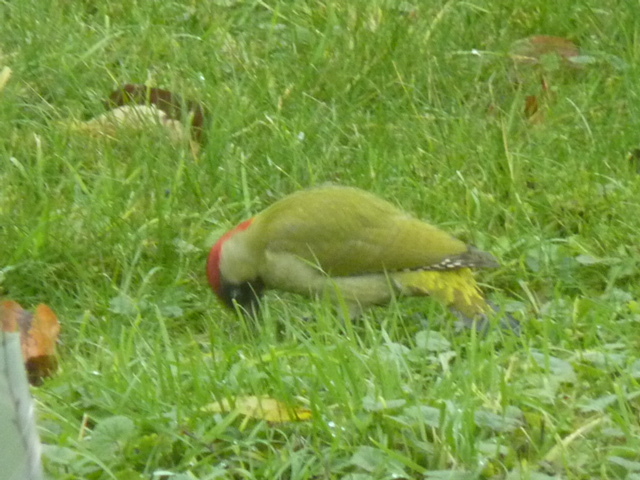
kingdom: Animalia
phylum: Chordata
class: Aves
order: Piciformes
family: Picidae
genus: Picus
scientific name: Picus viridis
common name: European green woodpecker
